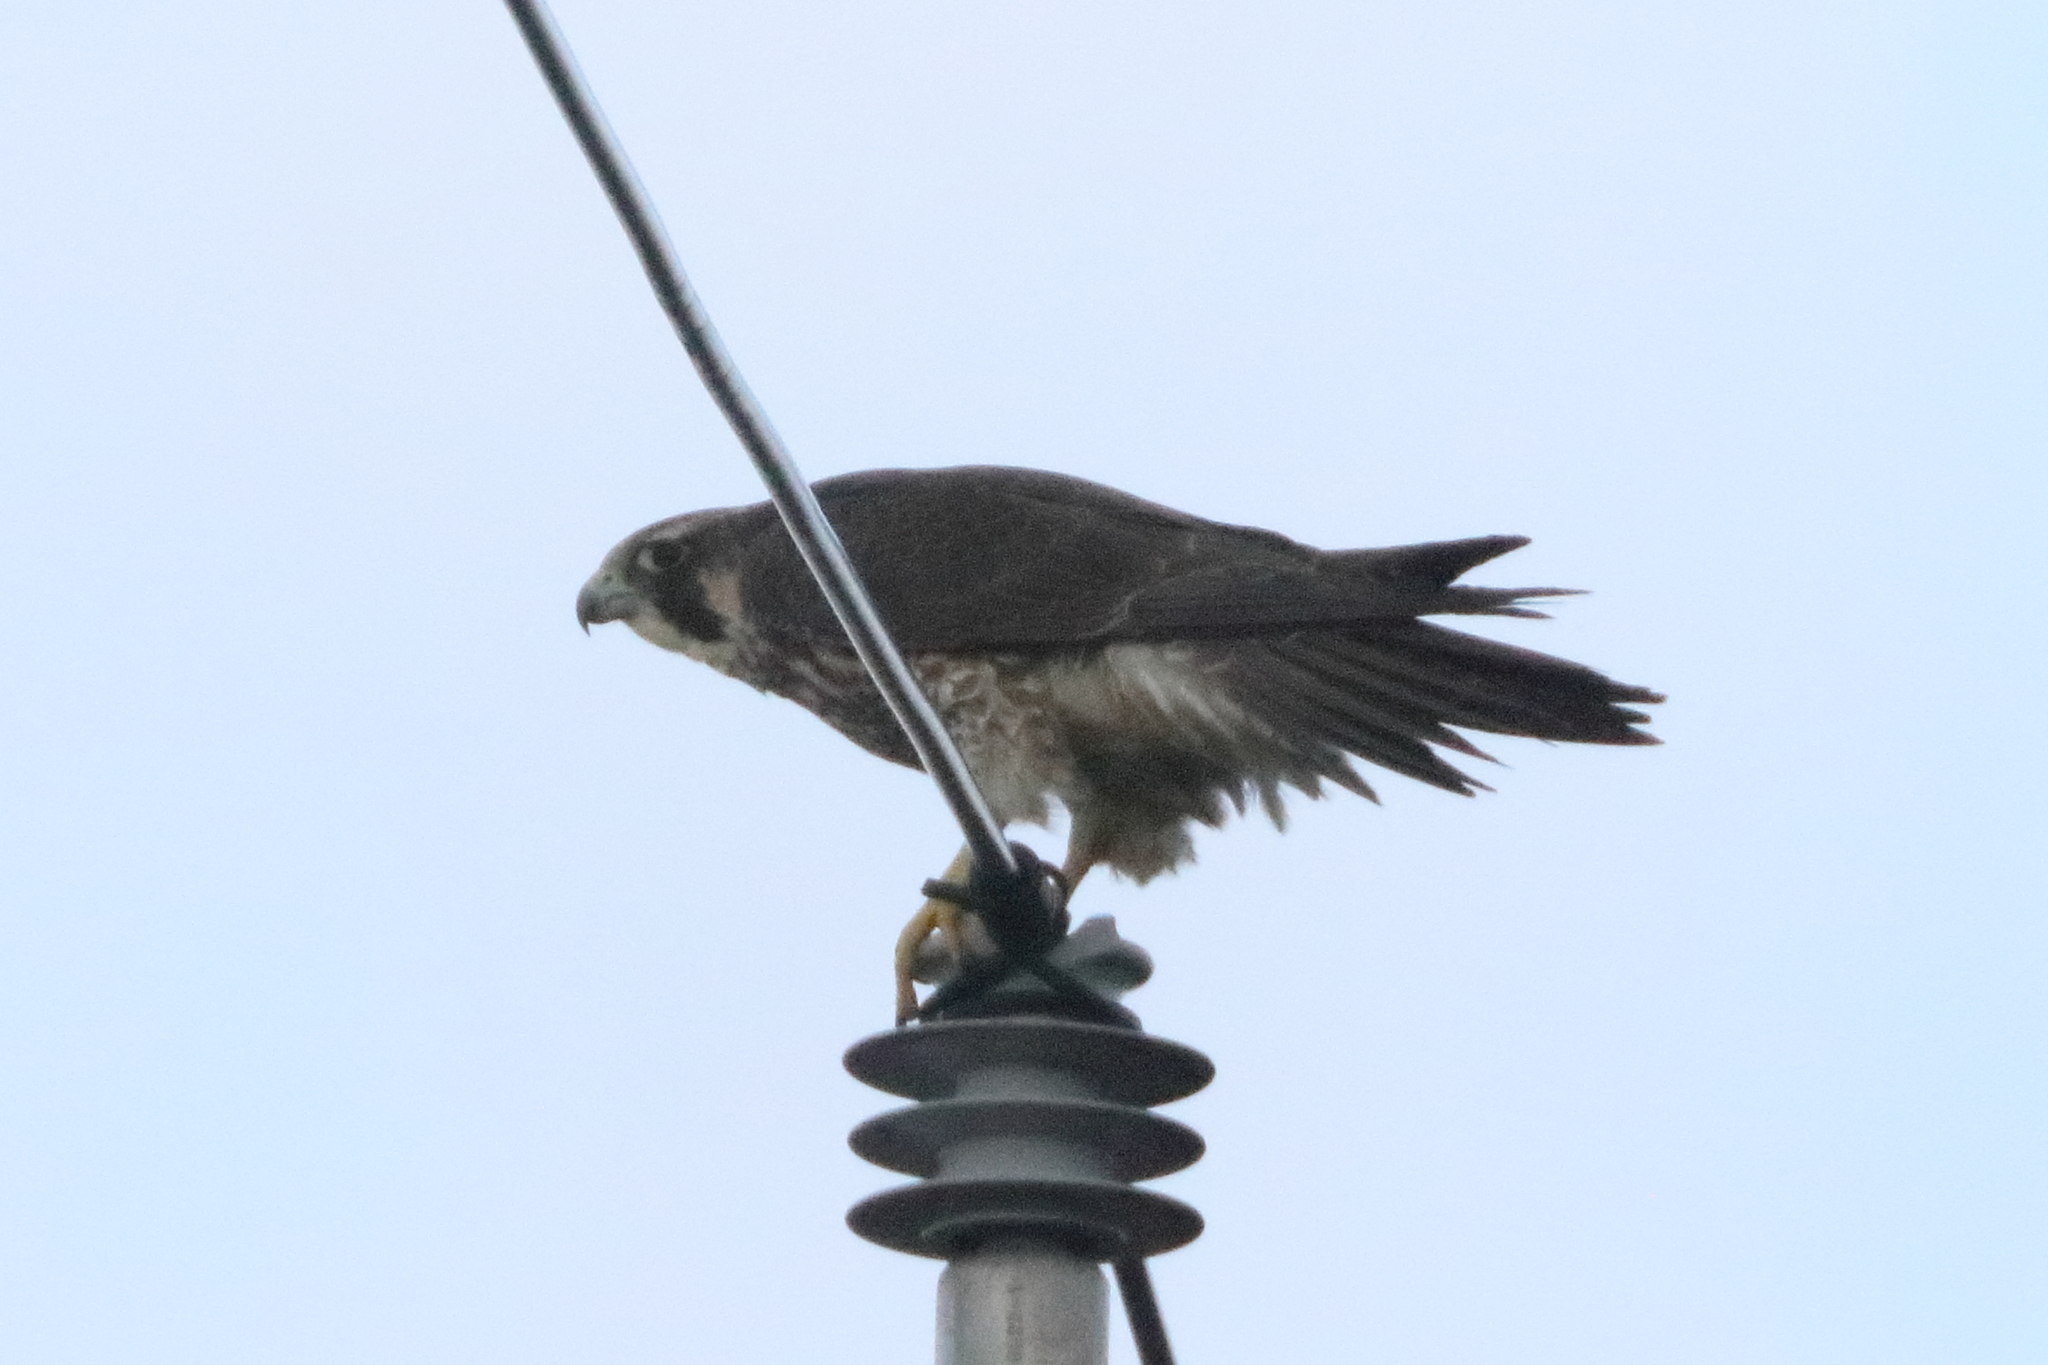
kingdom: Animalia
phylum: Chordata
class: Aves
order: Falconiformes
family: Falconidae
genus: Falco
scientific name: Falco peregrinus
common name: Peregrine falcon
